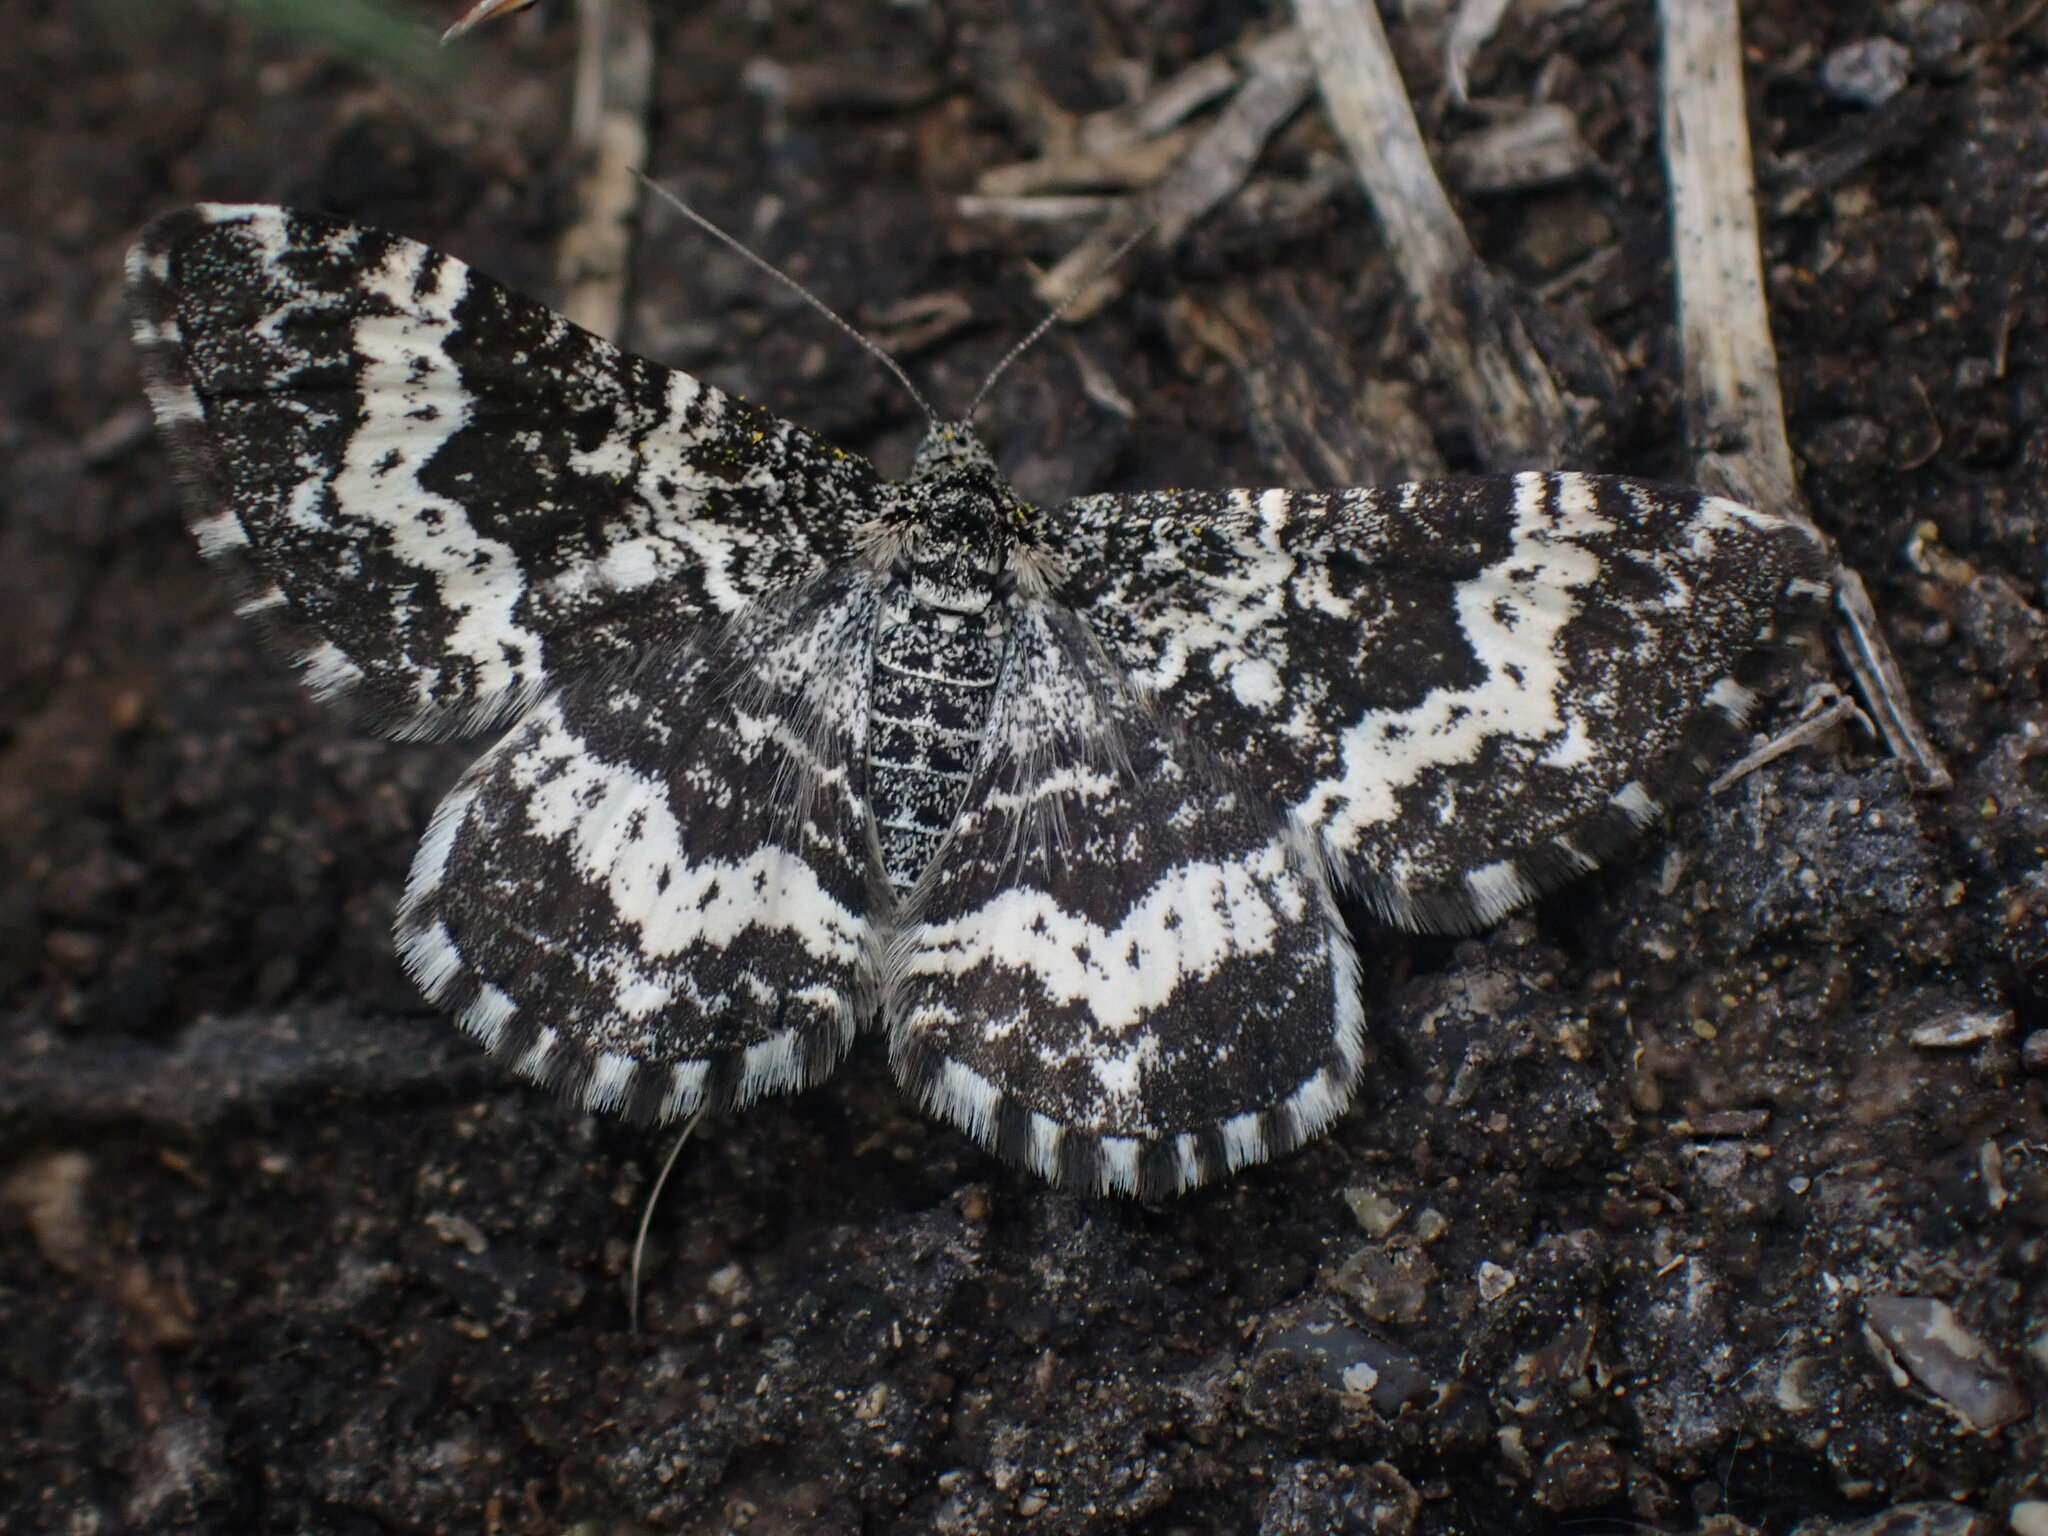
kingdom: Animalia
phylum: Arthropoda
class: Insecta
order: Lepidoptera
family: Geometridae
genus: Epirrhoe
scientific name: Epirrhoe sperryi
